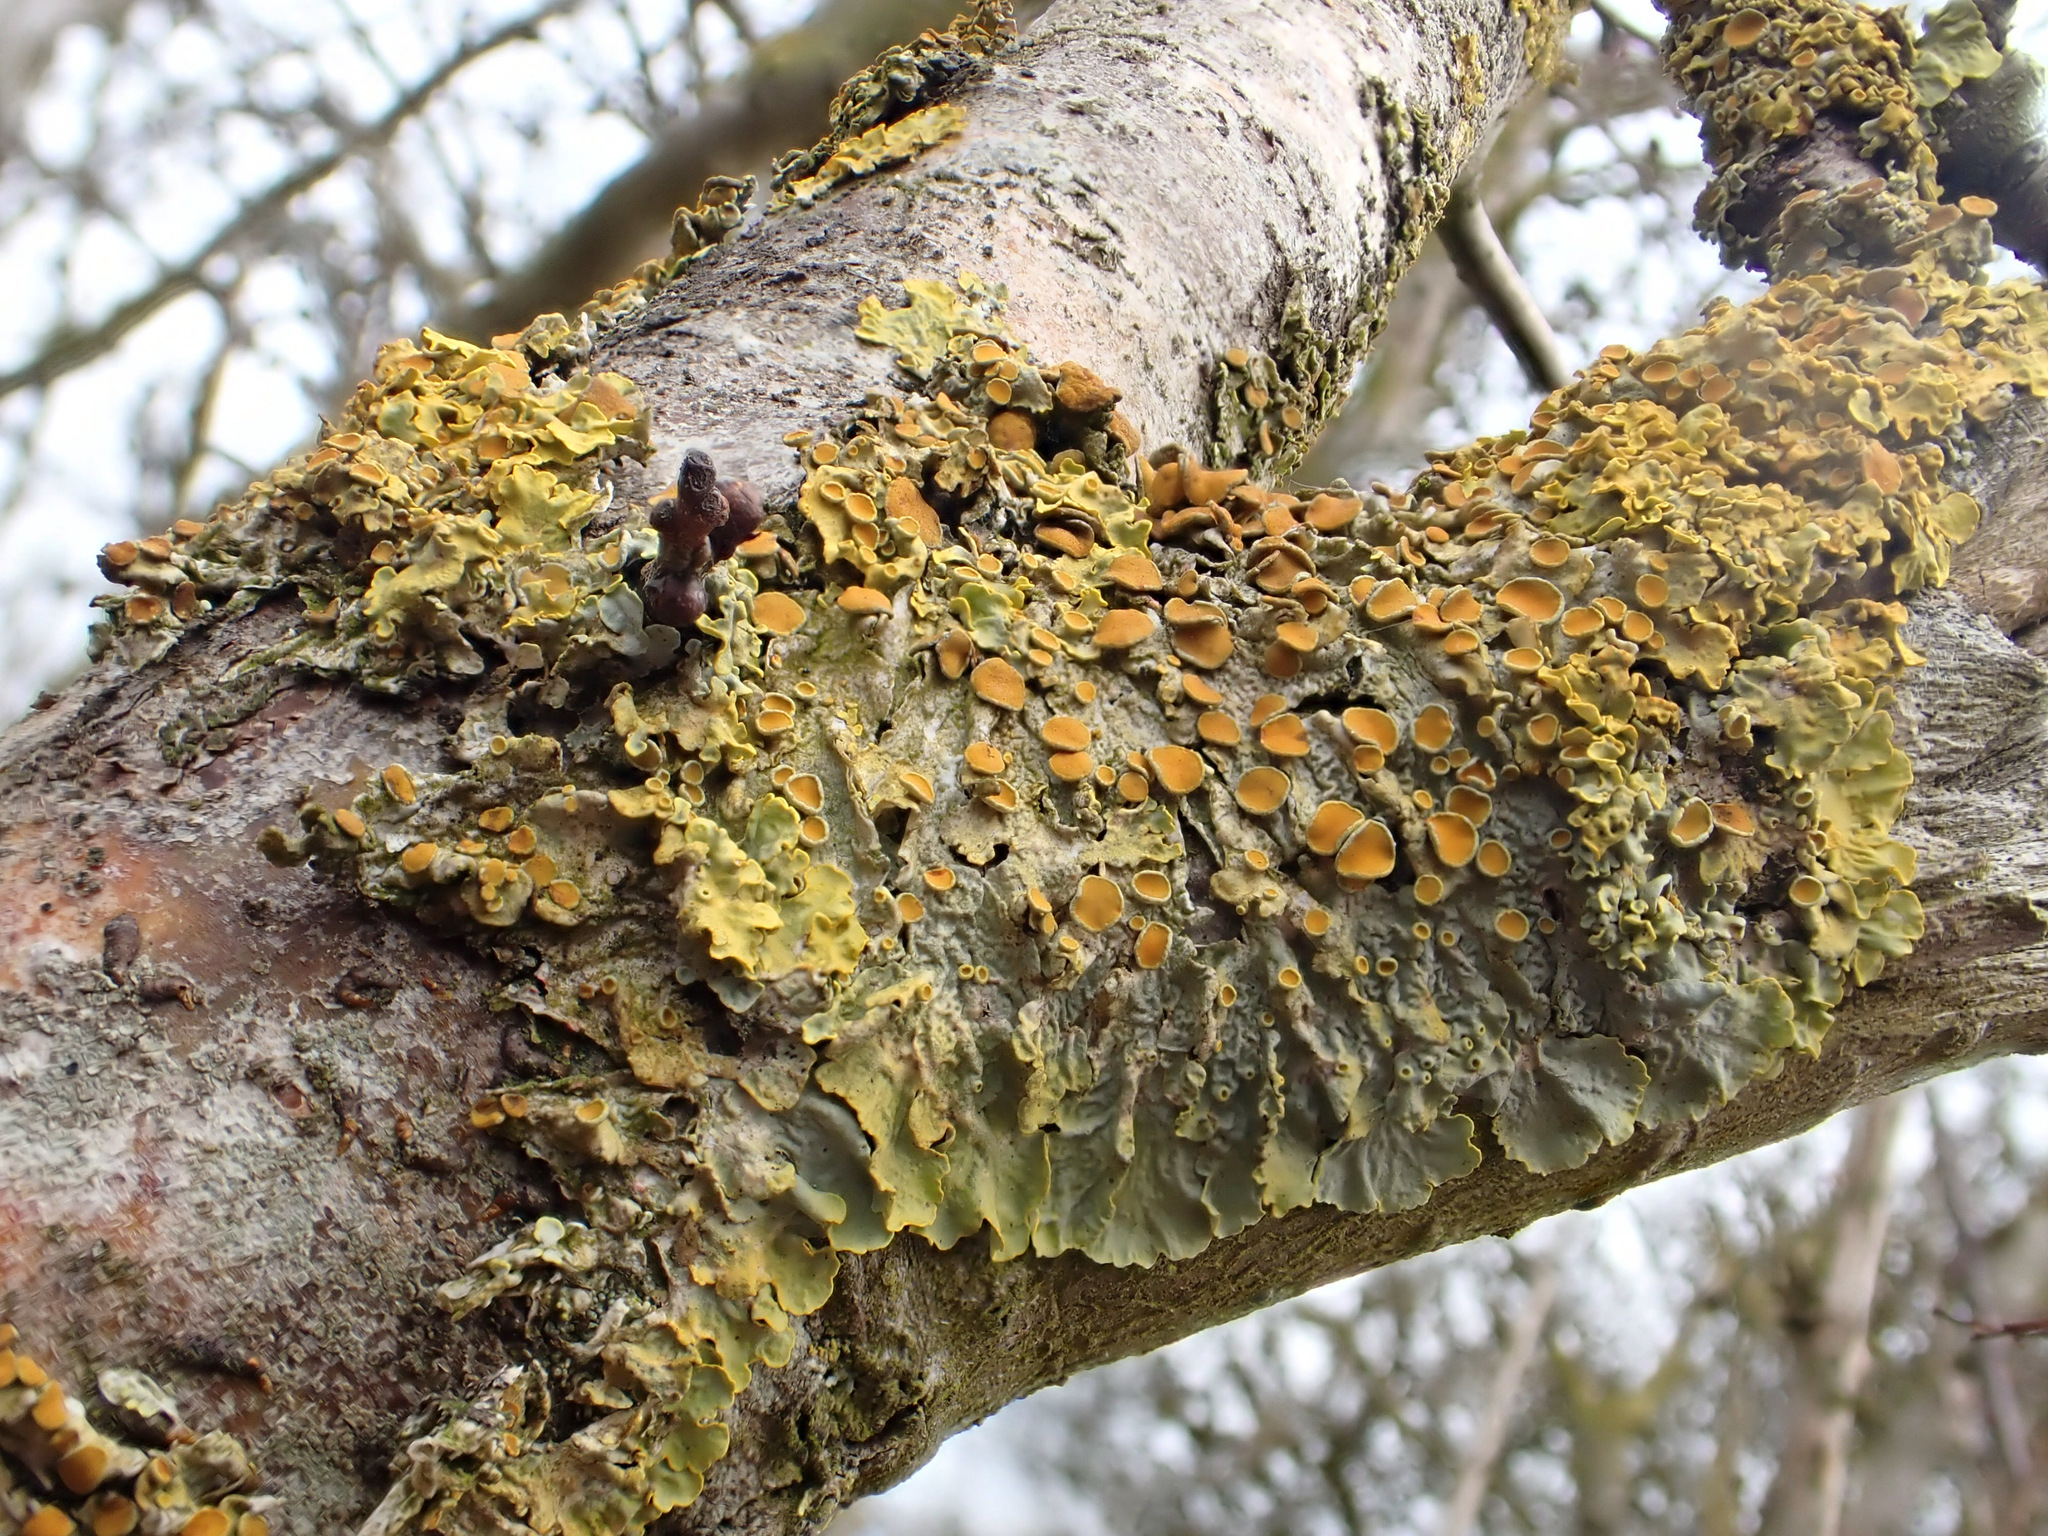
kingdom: Fungi
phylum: Ascomycota
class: Lecanoromycetes
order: Teloschistales
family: Teloschistaceae
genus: Xanthoria
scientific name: Xanthoria parietina
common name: Common orange lichen
